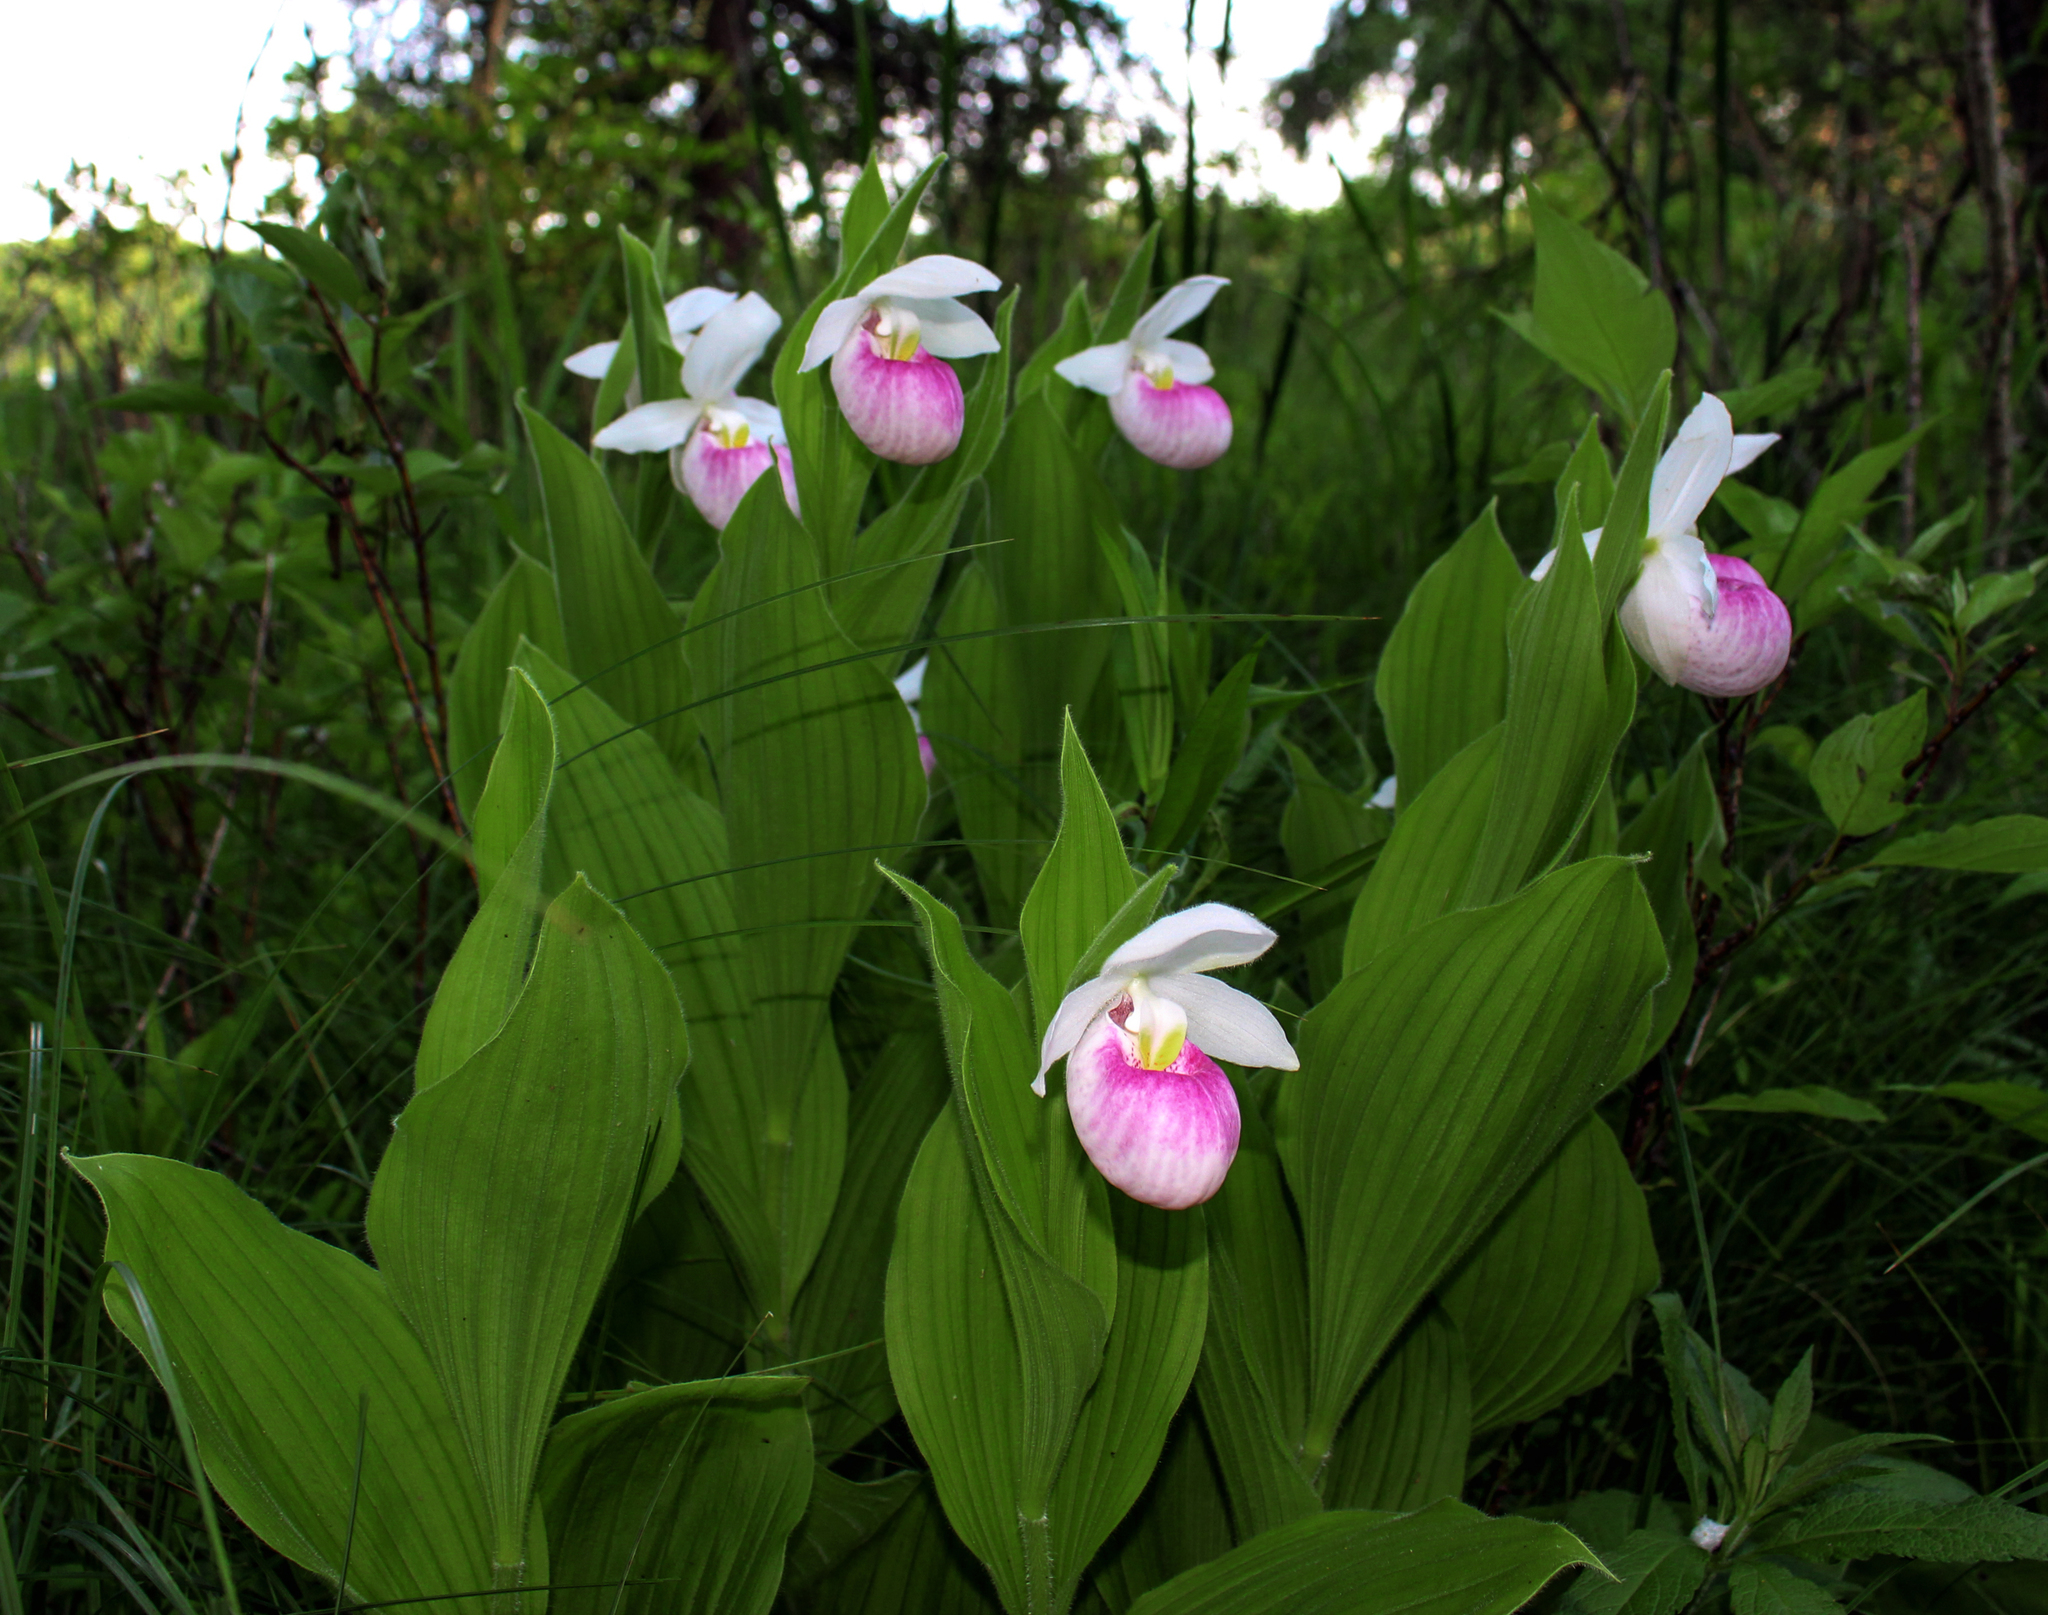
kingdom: Plantae
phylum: Tracheophyta
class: Liliopsida
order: Asparagales
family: Orchidaceae
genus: Cypripedium
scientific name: Cypripedium reginae
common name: Queen lady's-slipper
